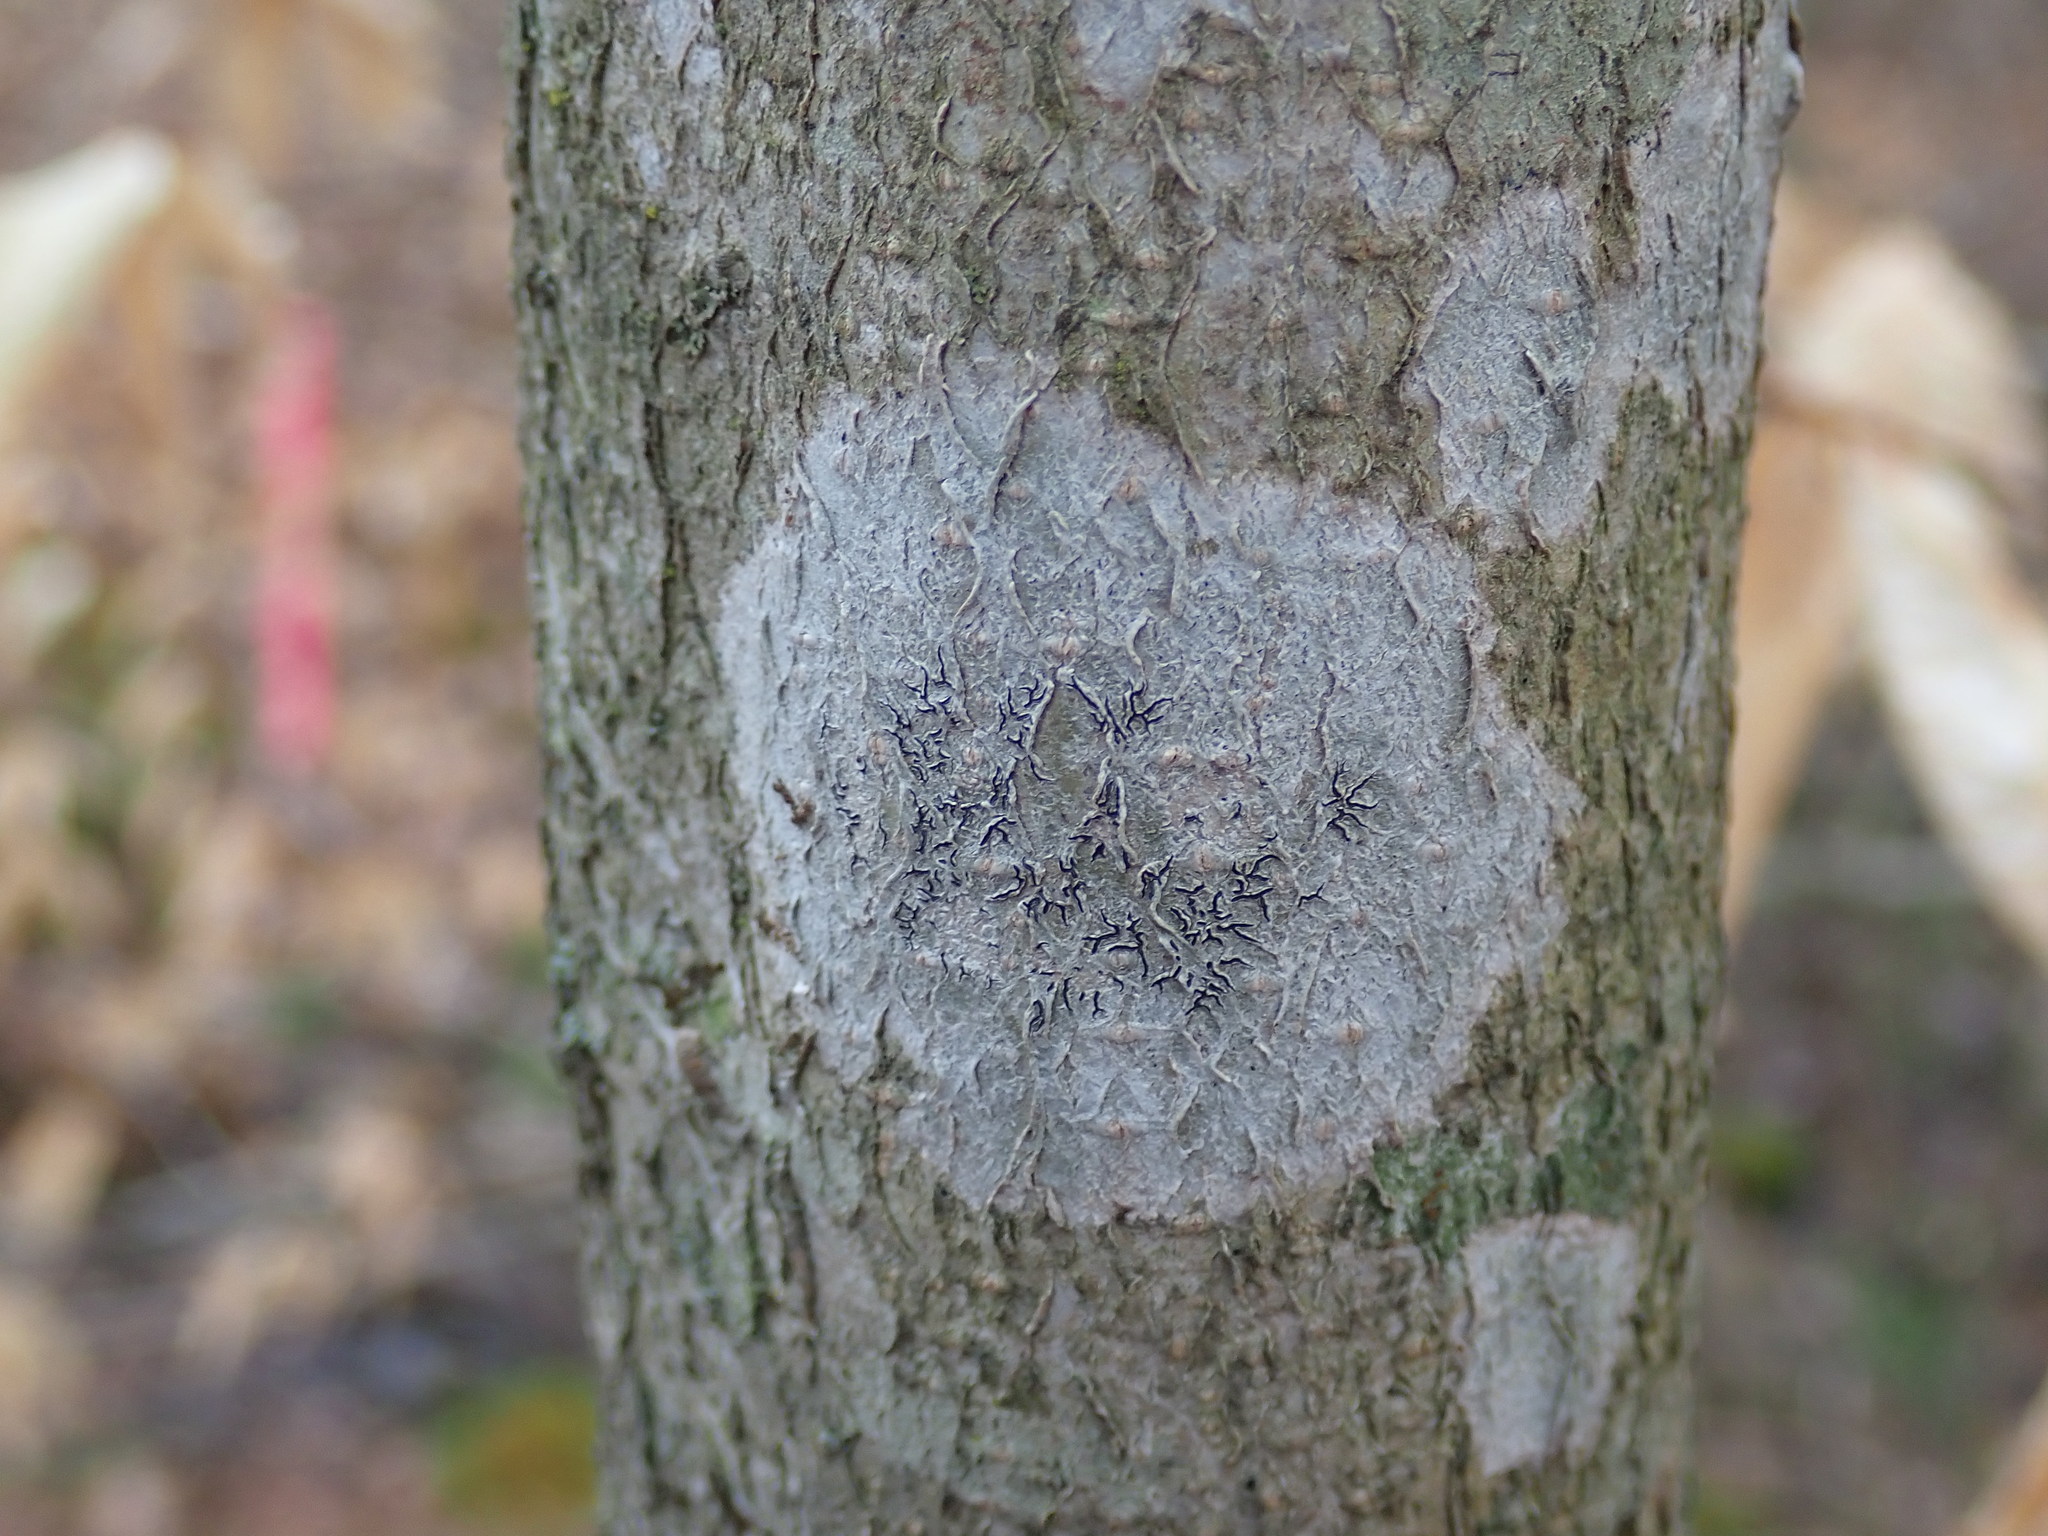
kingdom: Fungi
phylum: Ascomycota
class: Lecanoromycetes
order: Ostropales
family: Graphidaceae
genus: Graphis
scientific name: Graphis scripta
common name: Script lichen
